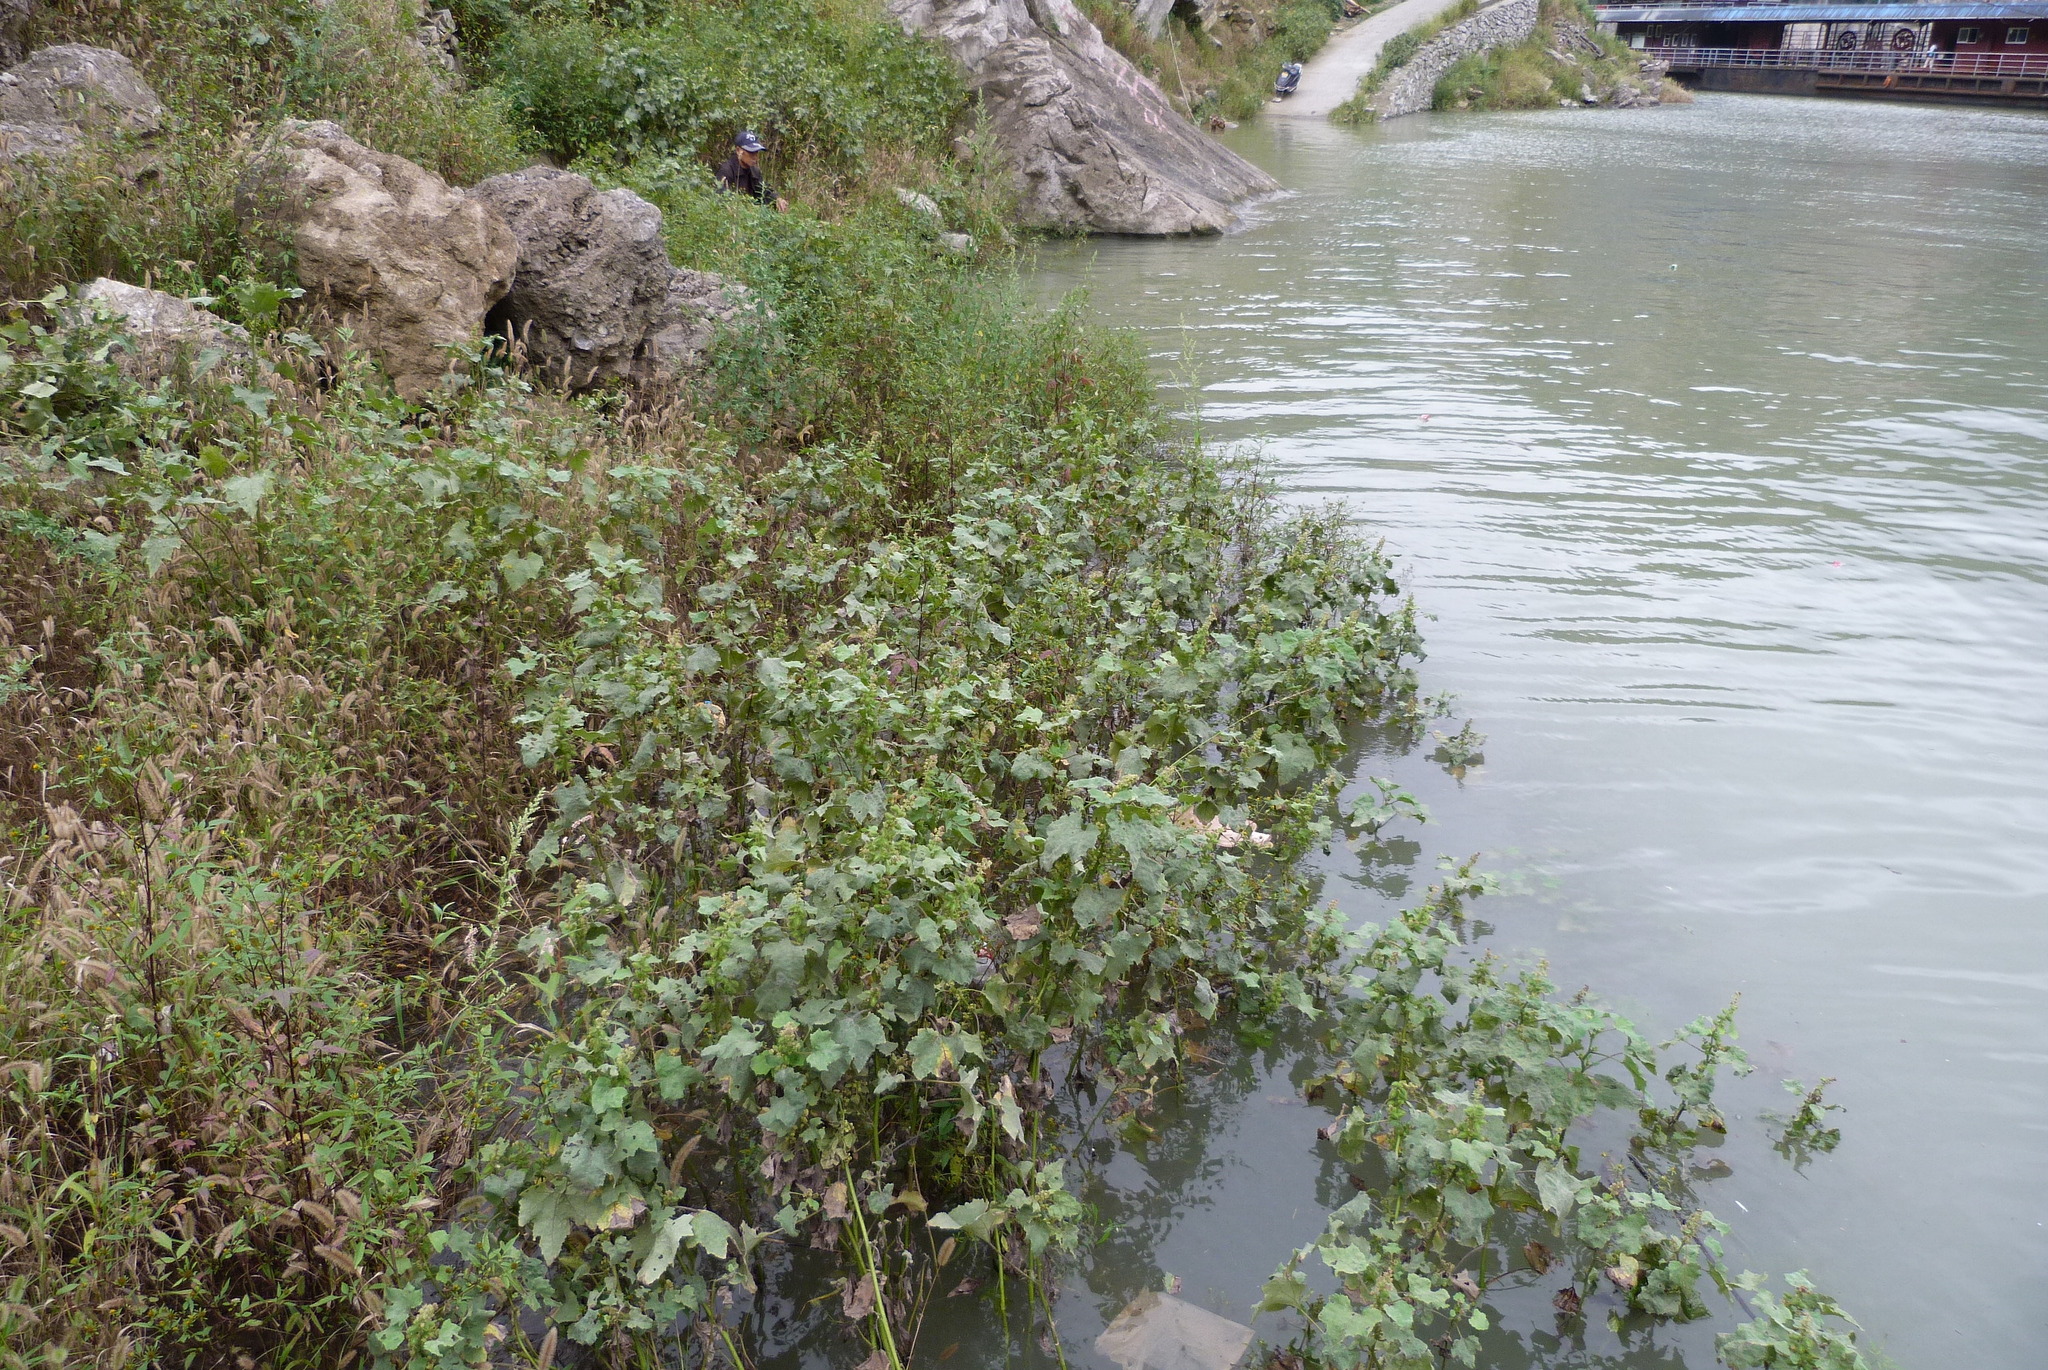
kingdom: Plantae
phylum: Tracheophyta
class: Magnoliopsida
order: Asterales
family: Asteraceae
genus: Xanthium
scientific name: Xanthium strumarium
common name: Rough cocklebur
